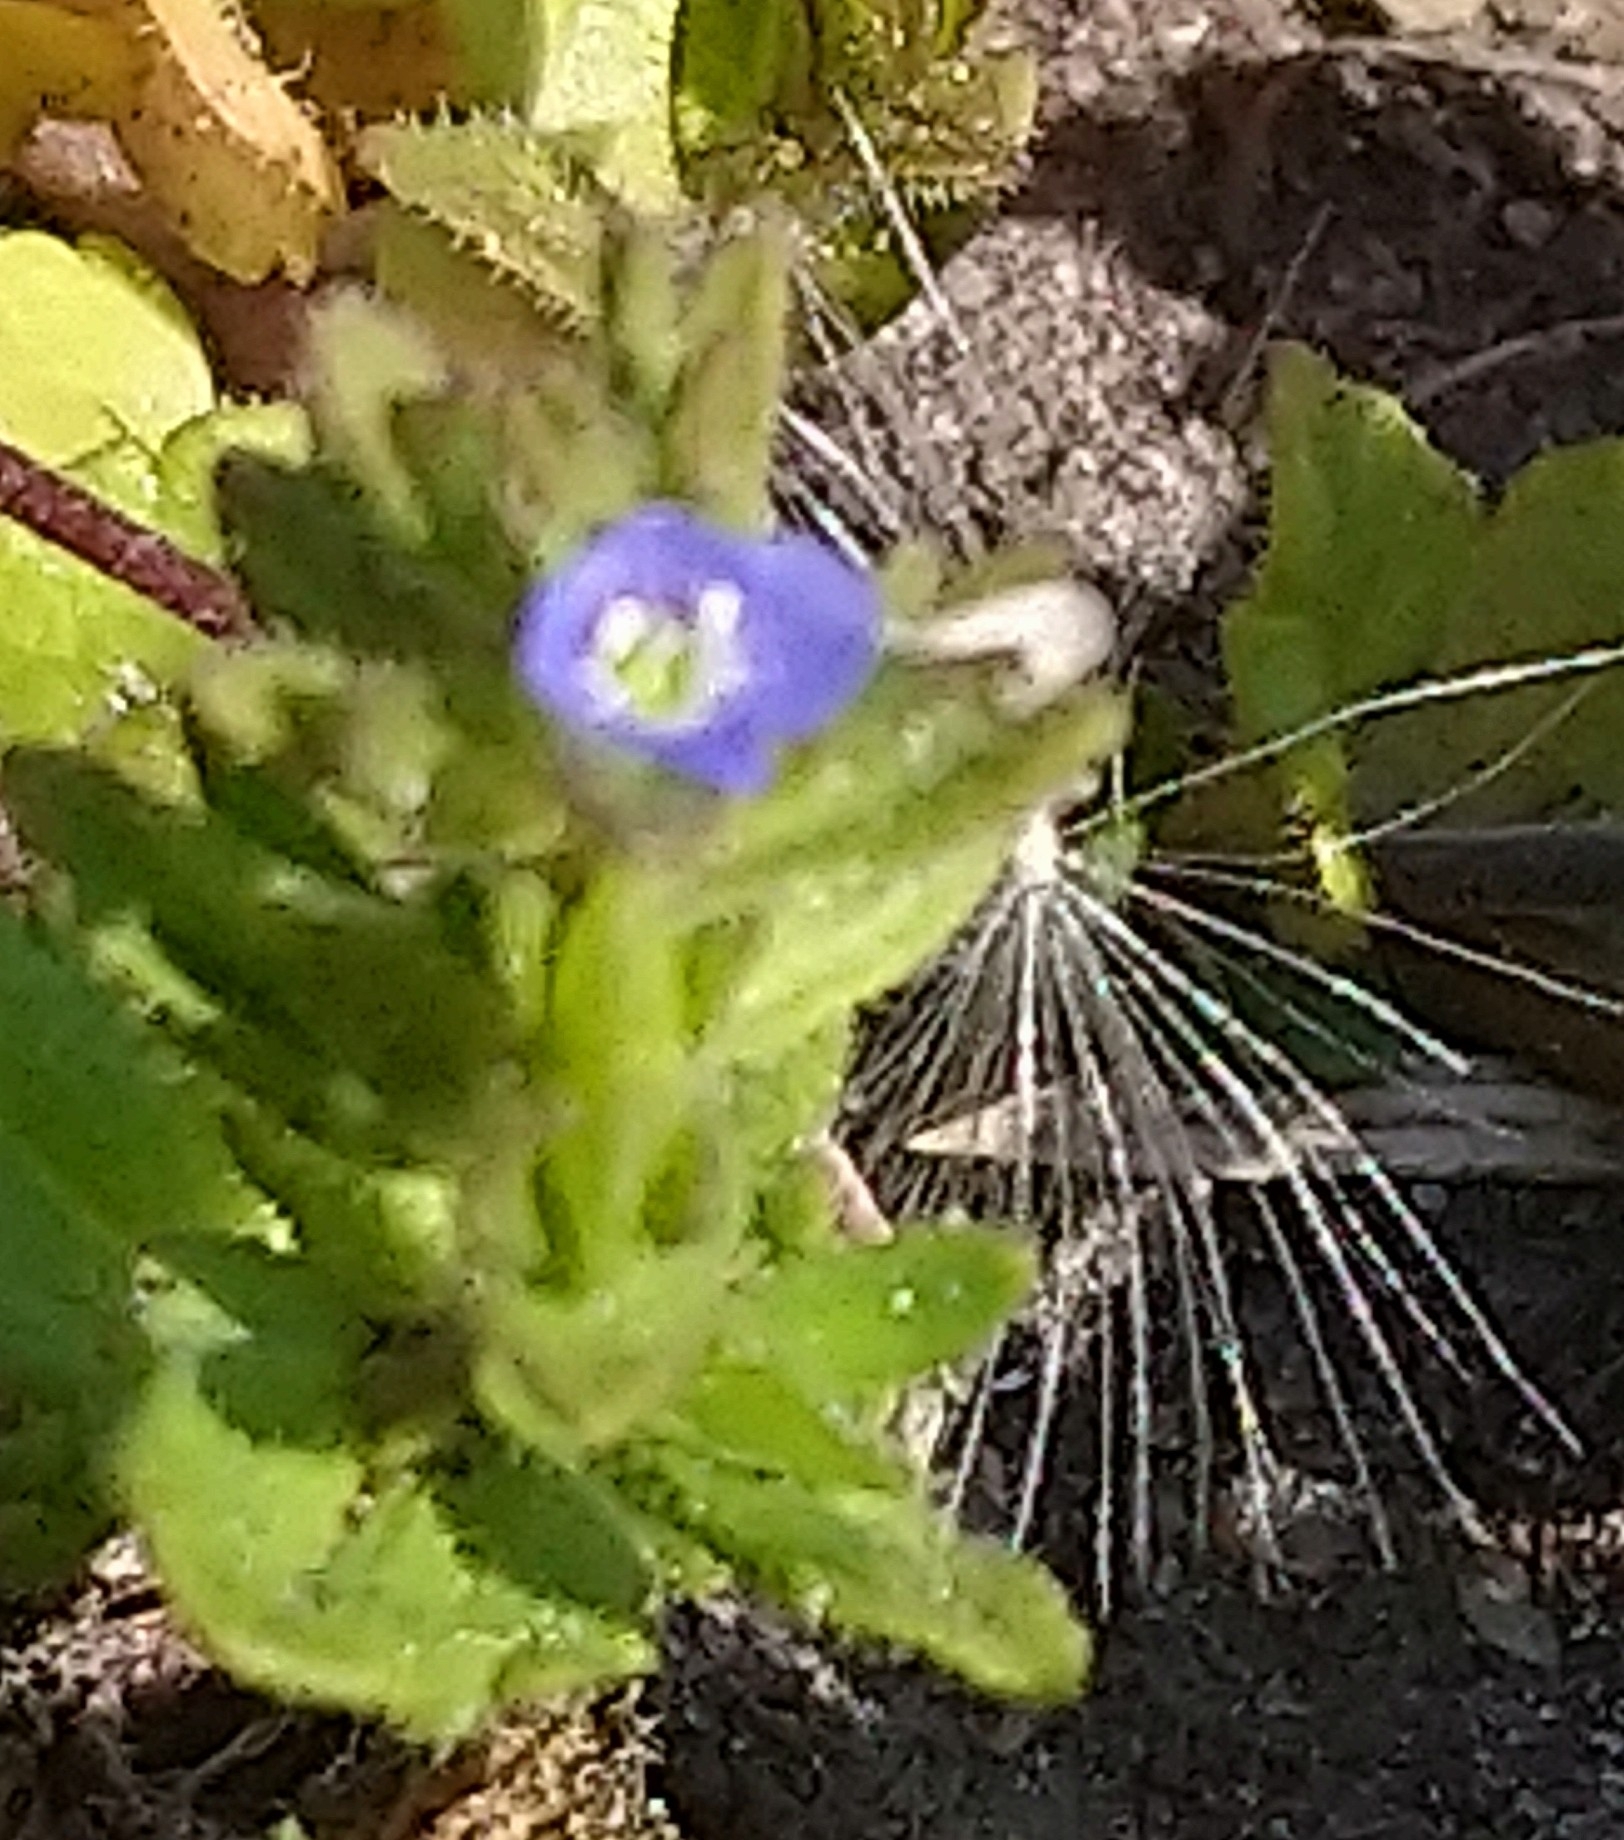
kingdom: Plantae
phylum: Tracheophyta
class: Magnoliopsida
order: Lamiales
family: Plantaginaceae
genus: Veronica
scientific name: Veronica arvensis
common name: Corn speedwell
